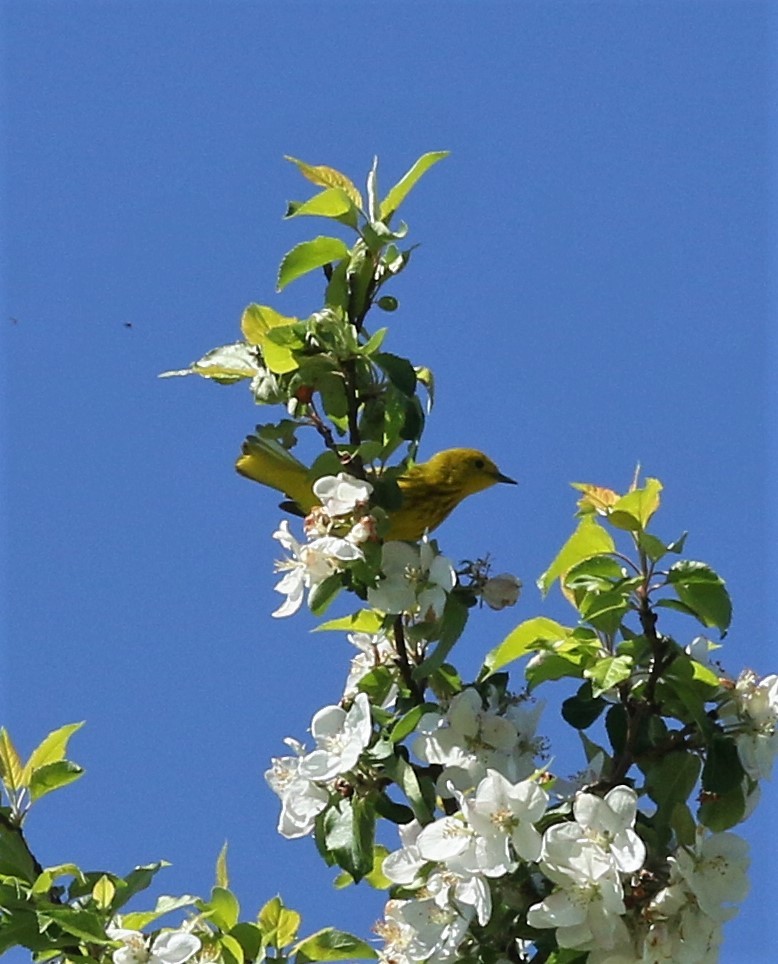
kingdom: Animalia
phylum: Chordata
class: Aves
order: Passeriformes
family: Parulidae
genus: Setophaga
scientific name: Setophaga petechia
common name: Yellow warbler
